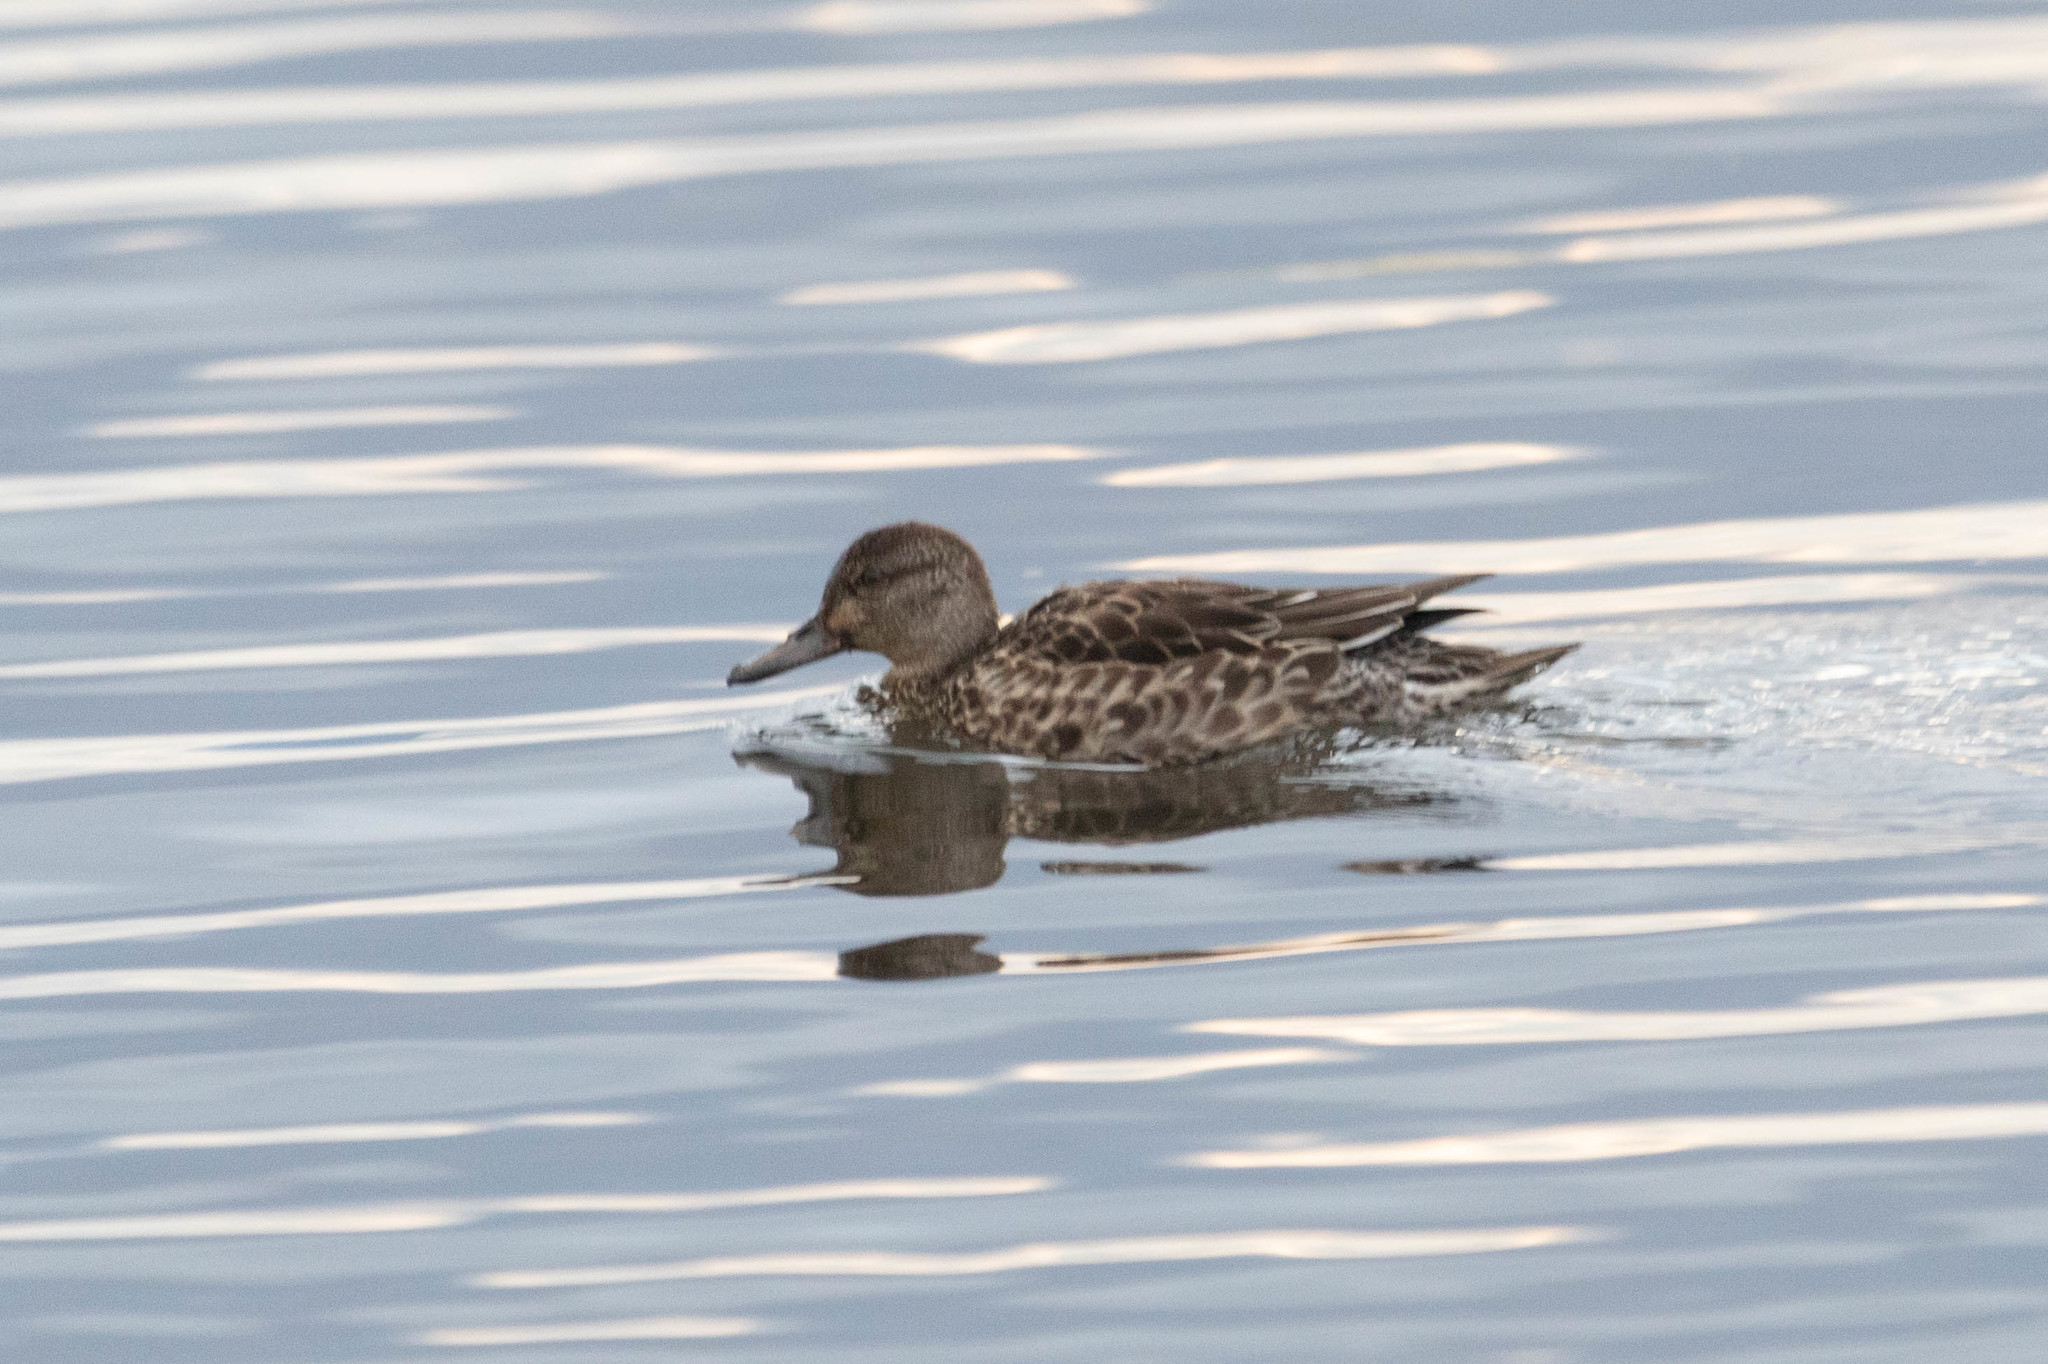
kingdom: Animalia
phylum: Chordata
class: Aves
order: Anseriformes
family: Anatidae
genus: Anas
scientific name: Anas crecca
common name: Eurasian teal
